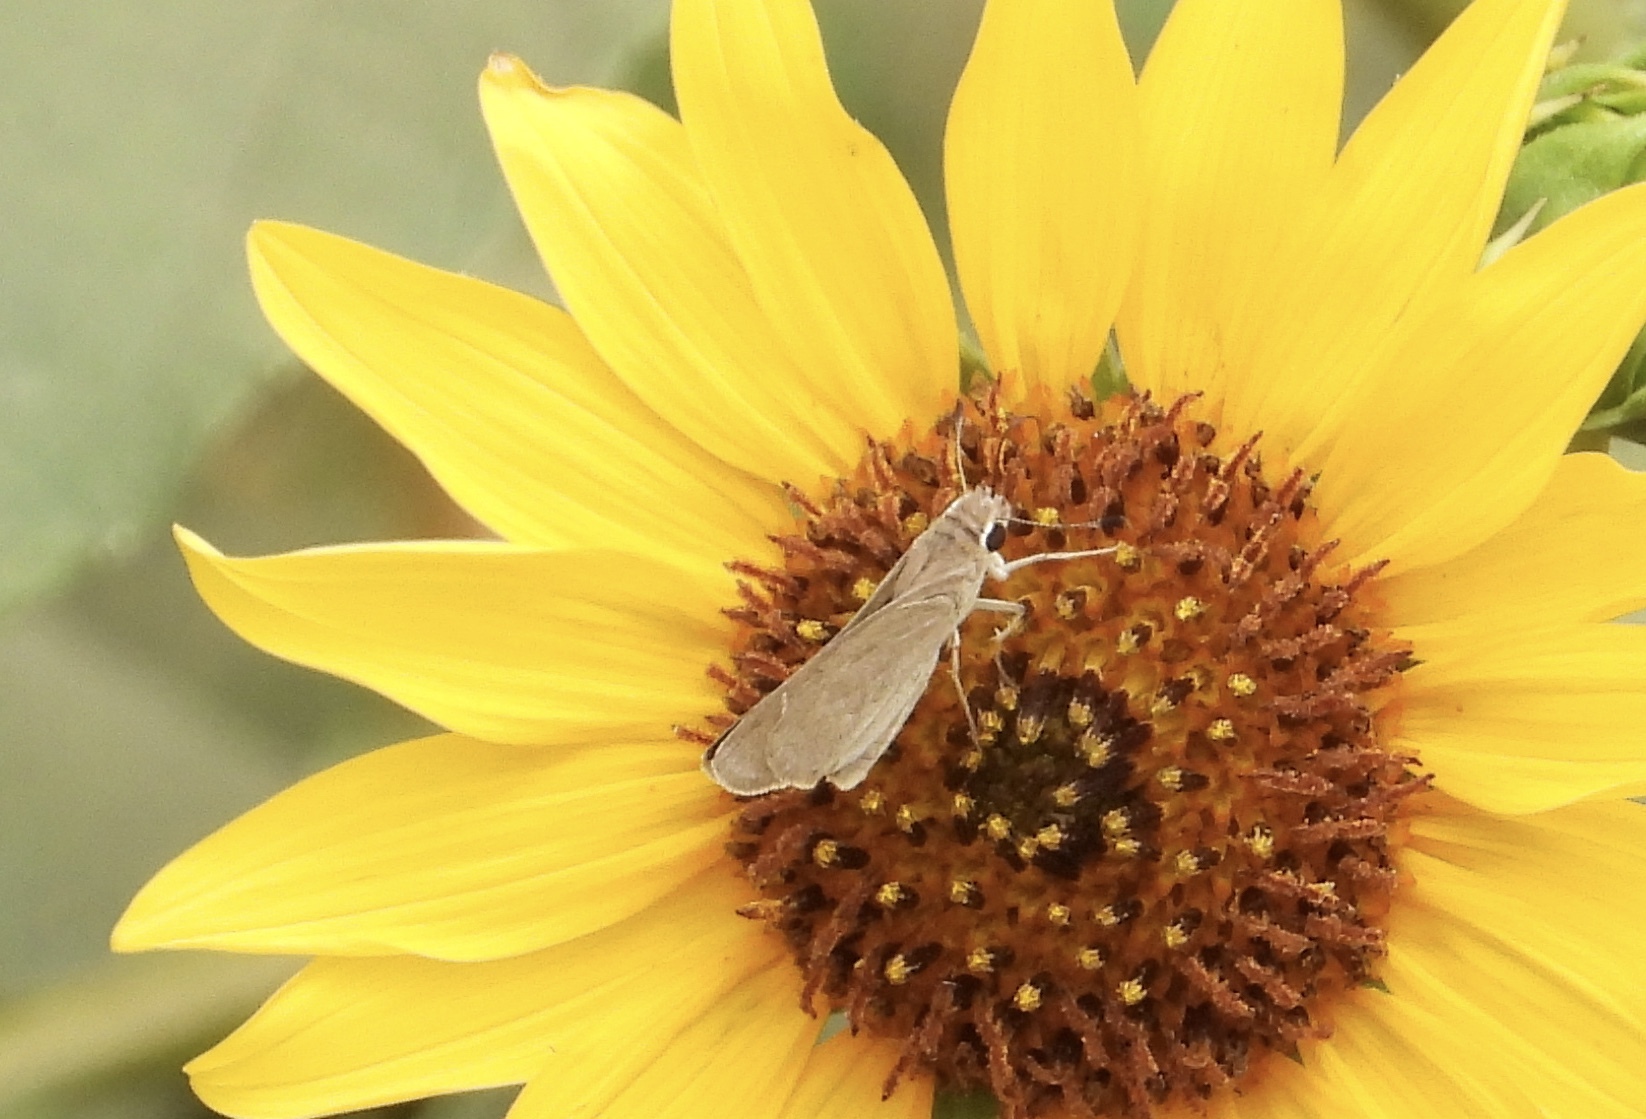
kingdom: Animalia
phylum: Arthropoda
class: Insecta
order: Lepidoptera
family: Hesperiidae
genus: Lerodea
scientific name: Lerodea eufala
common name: Eufala skipper
